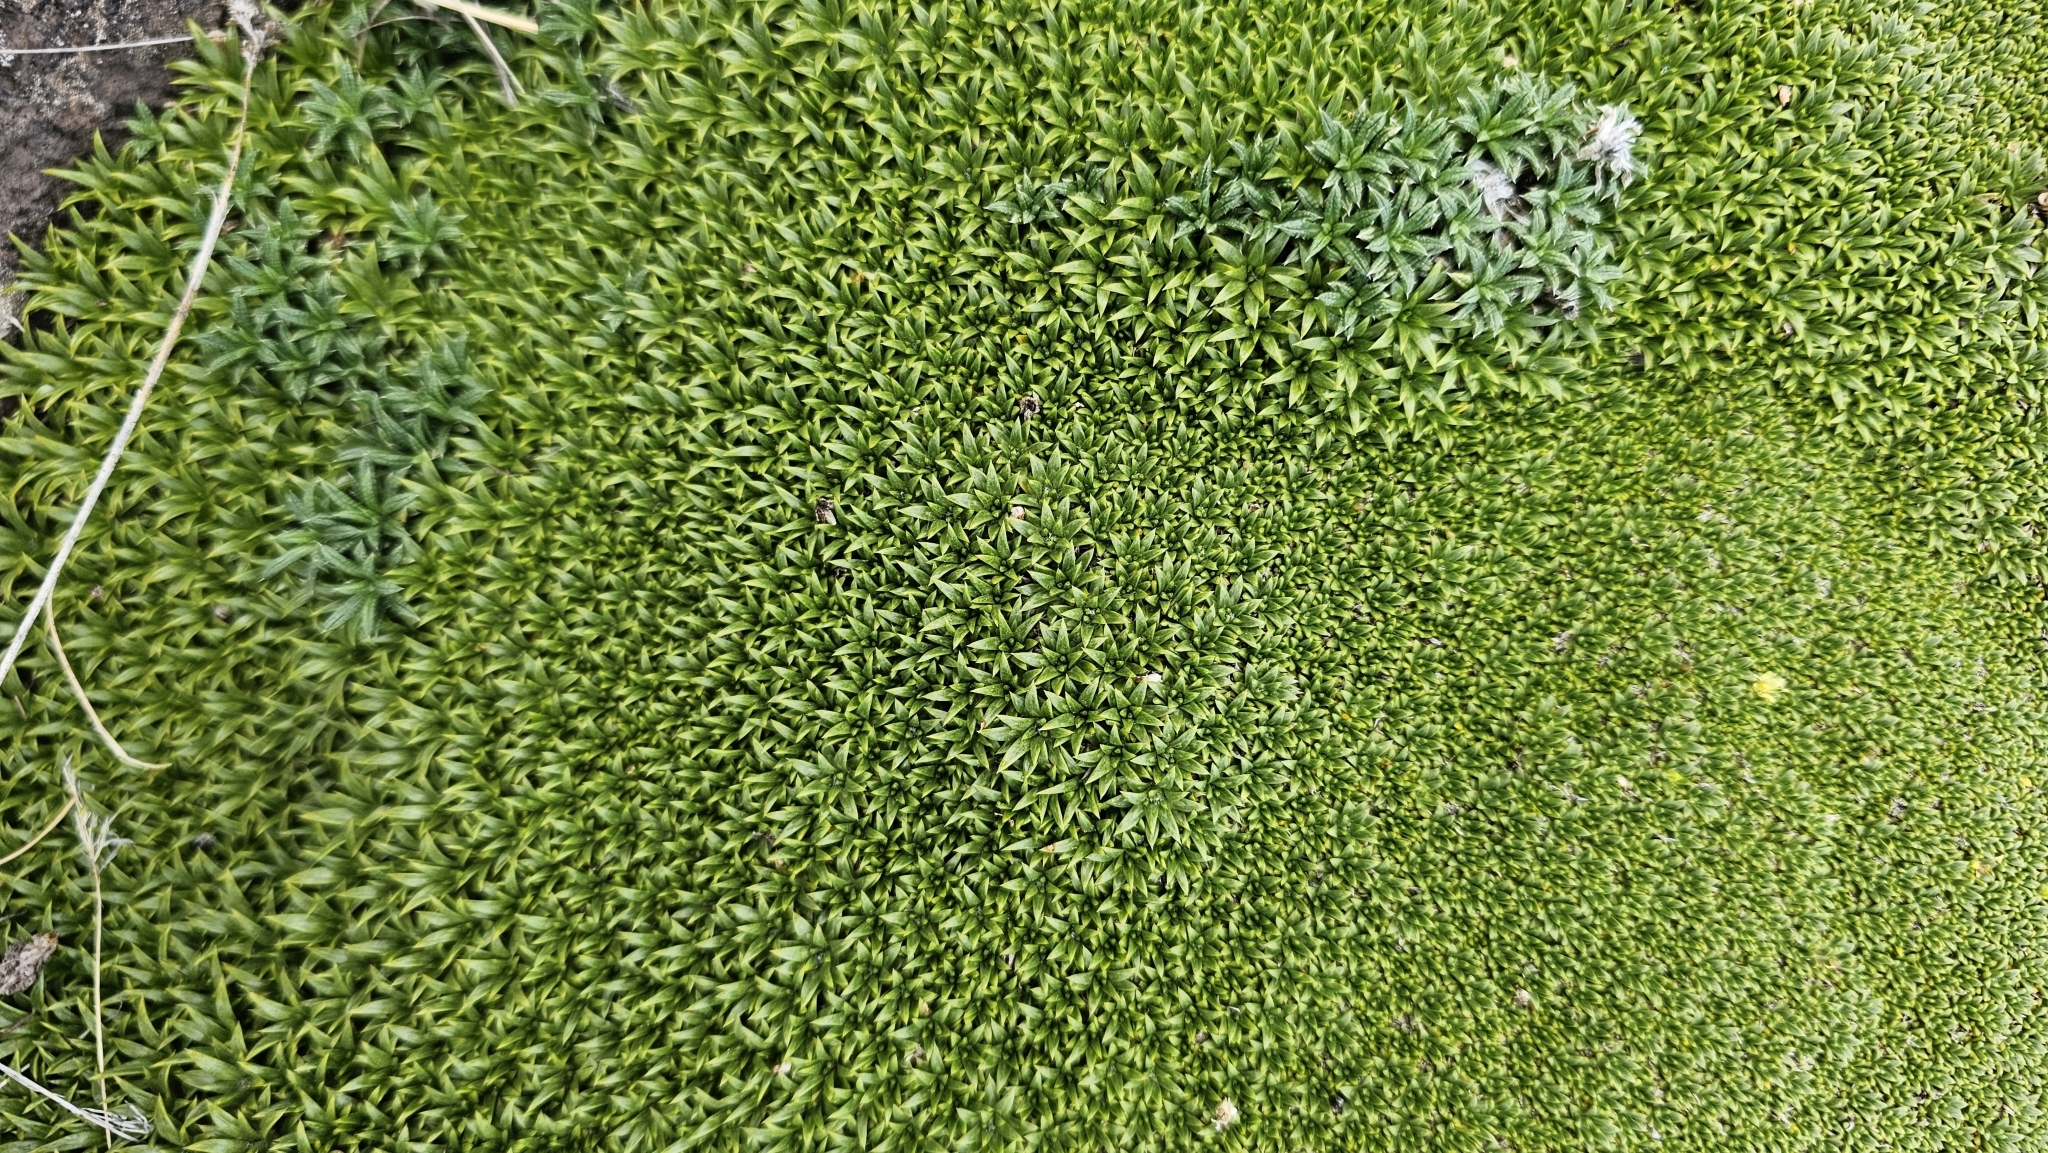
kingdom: Plantae
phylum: Tracheophyta
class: Magnoliopsida
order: Apiales
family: Apiaceae
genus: Azorella
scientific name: Azorella monantha
